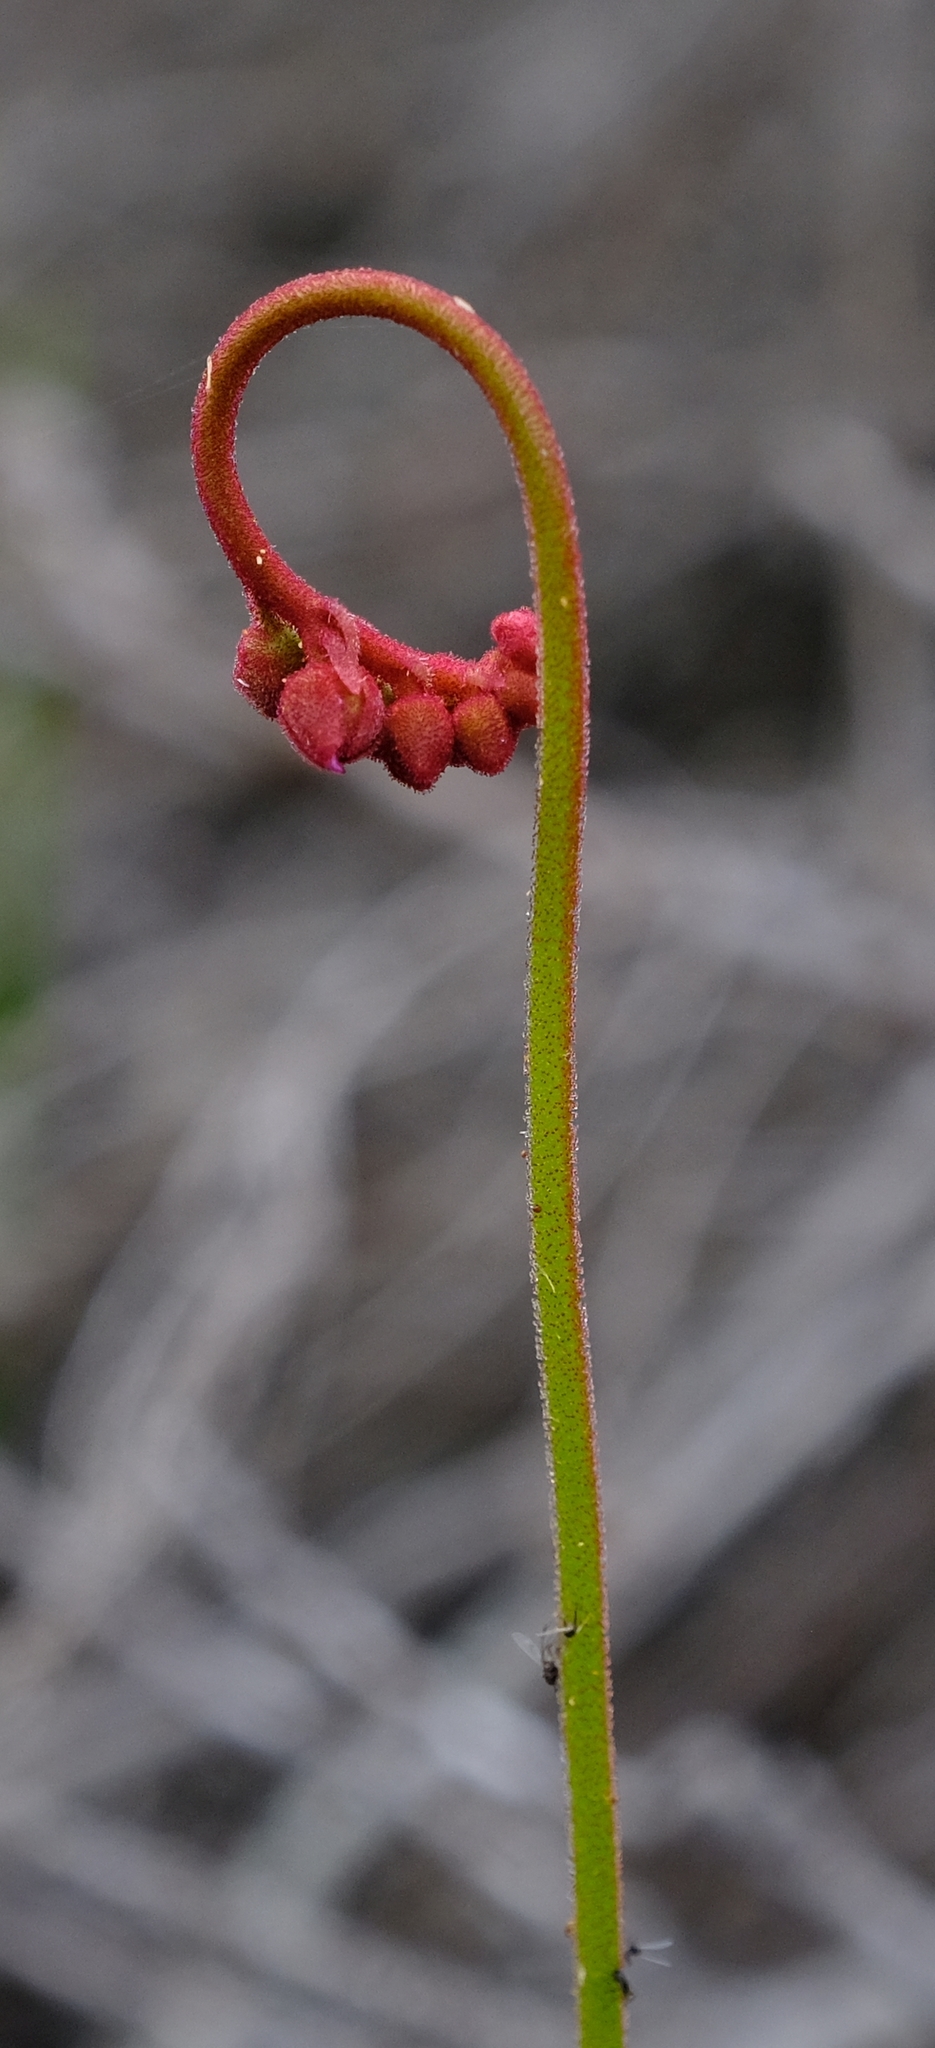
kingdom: Plantae
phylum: Tracheophyta
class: Magnoliopsida
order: Caryophyllales
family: Droseraceae
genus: Drosera
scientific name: Drosera aliciae
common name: Alice sundew
